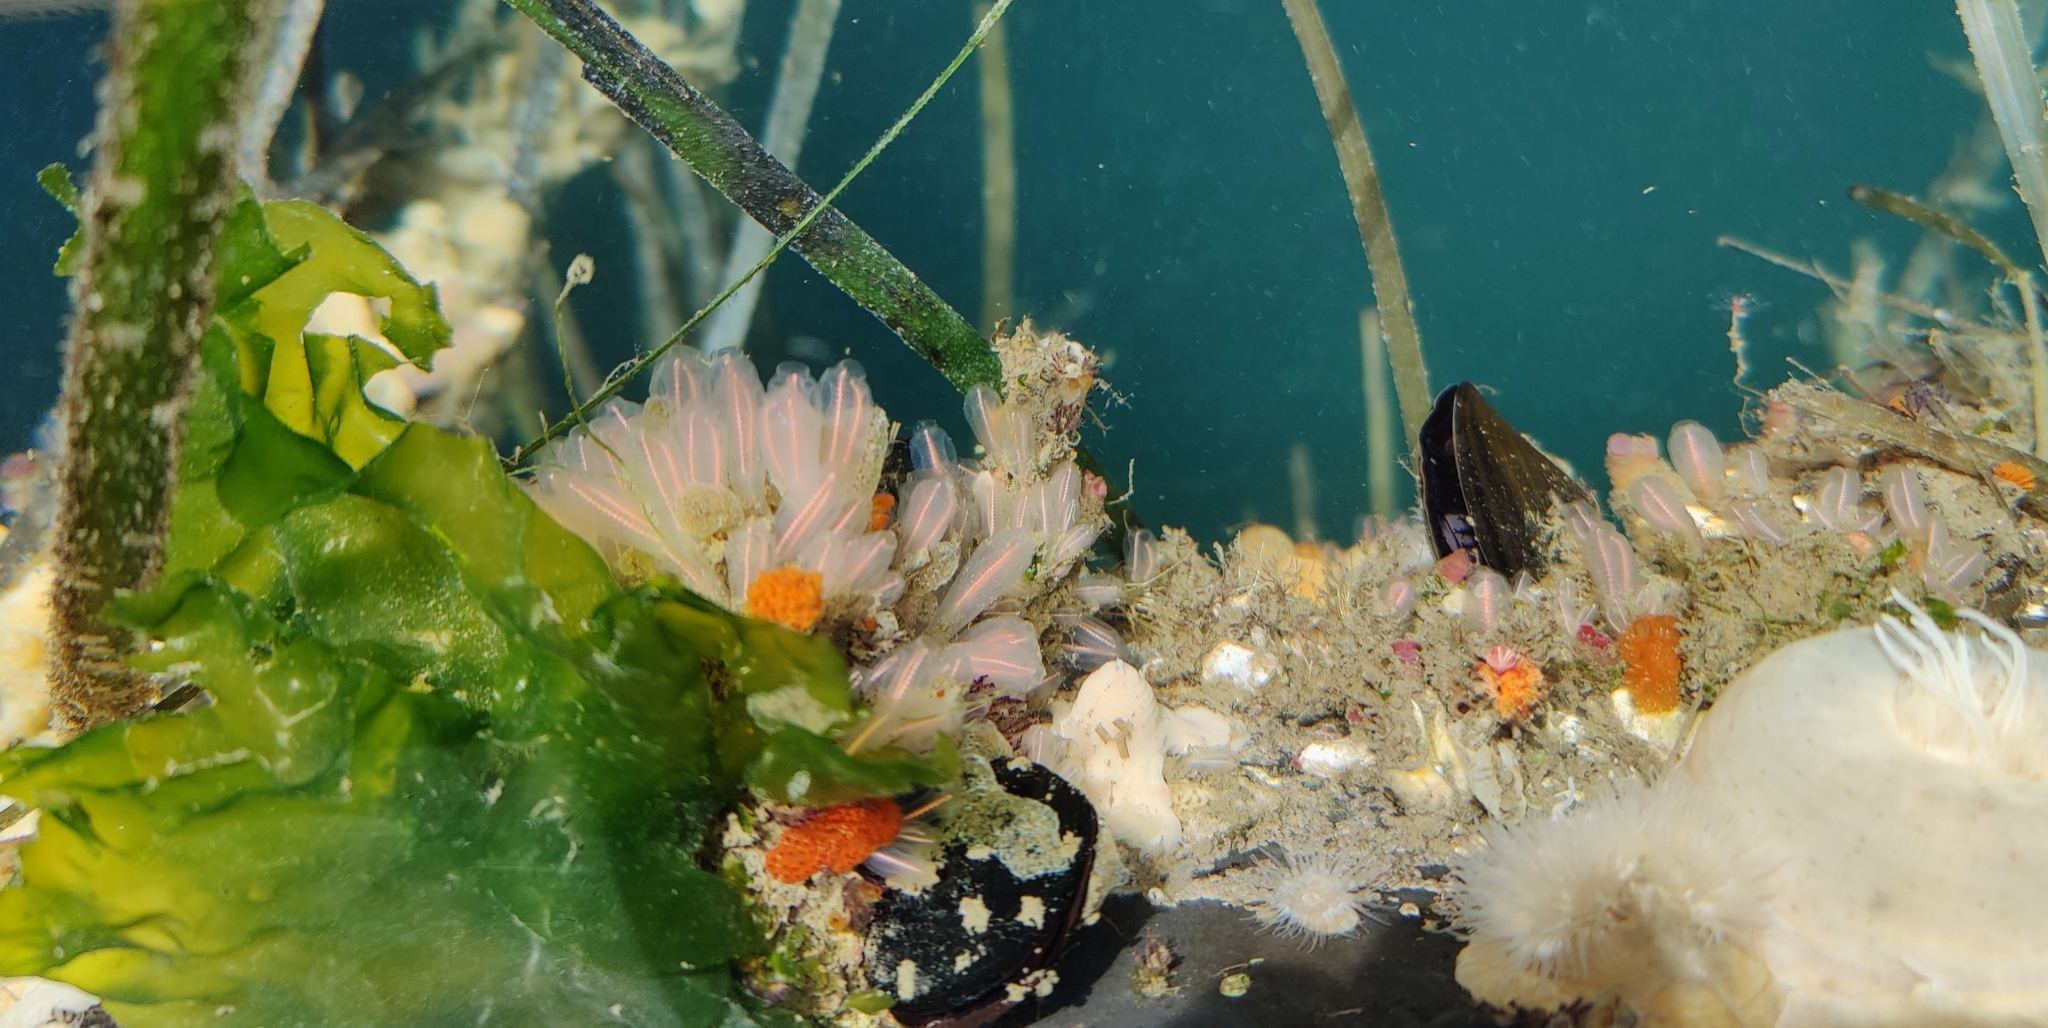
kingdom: Animalia
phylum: Chordata
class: Ascidiacea
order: Aplousobranchia
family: Clavelinidae
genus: Clavelina
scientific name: Clavelina huntsmani
